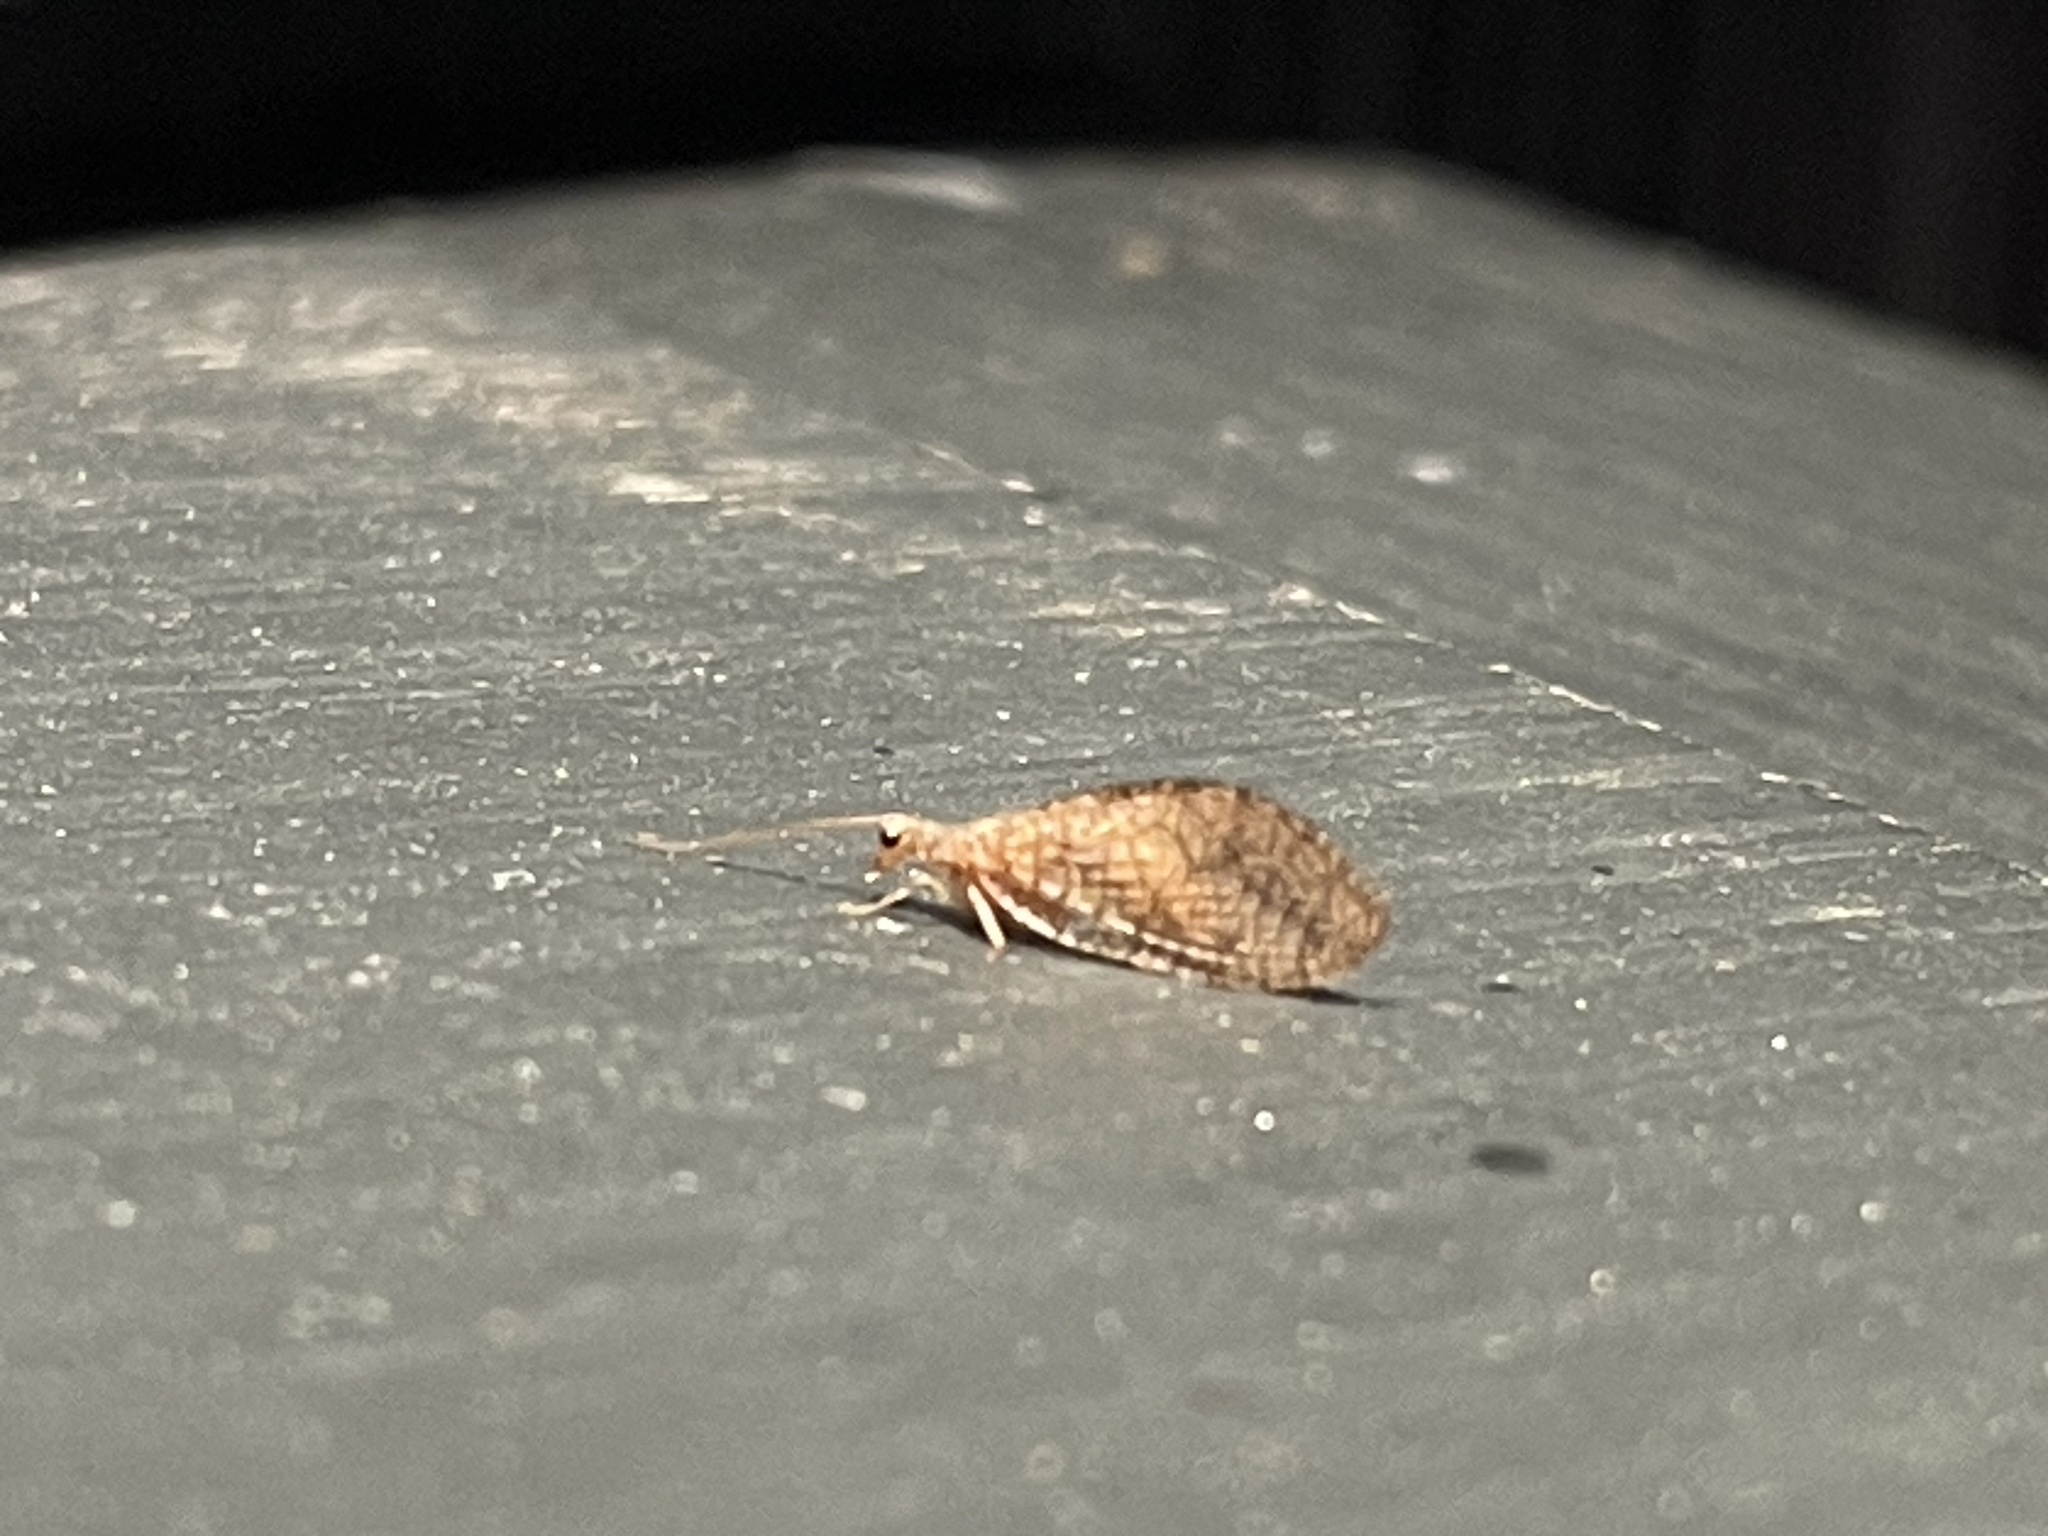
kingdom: Animalia
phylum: Arthropoda
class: Insecta
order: Neuroptera
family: Hemerobiidae
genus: Micromus
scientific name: Micromus posticus
